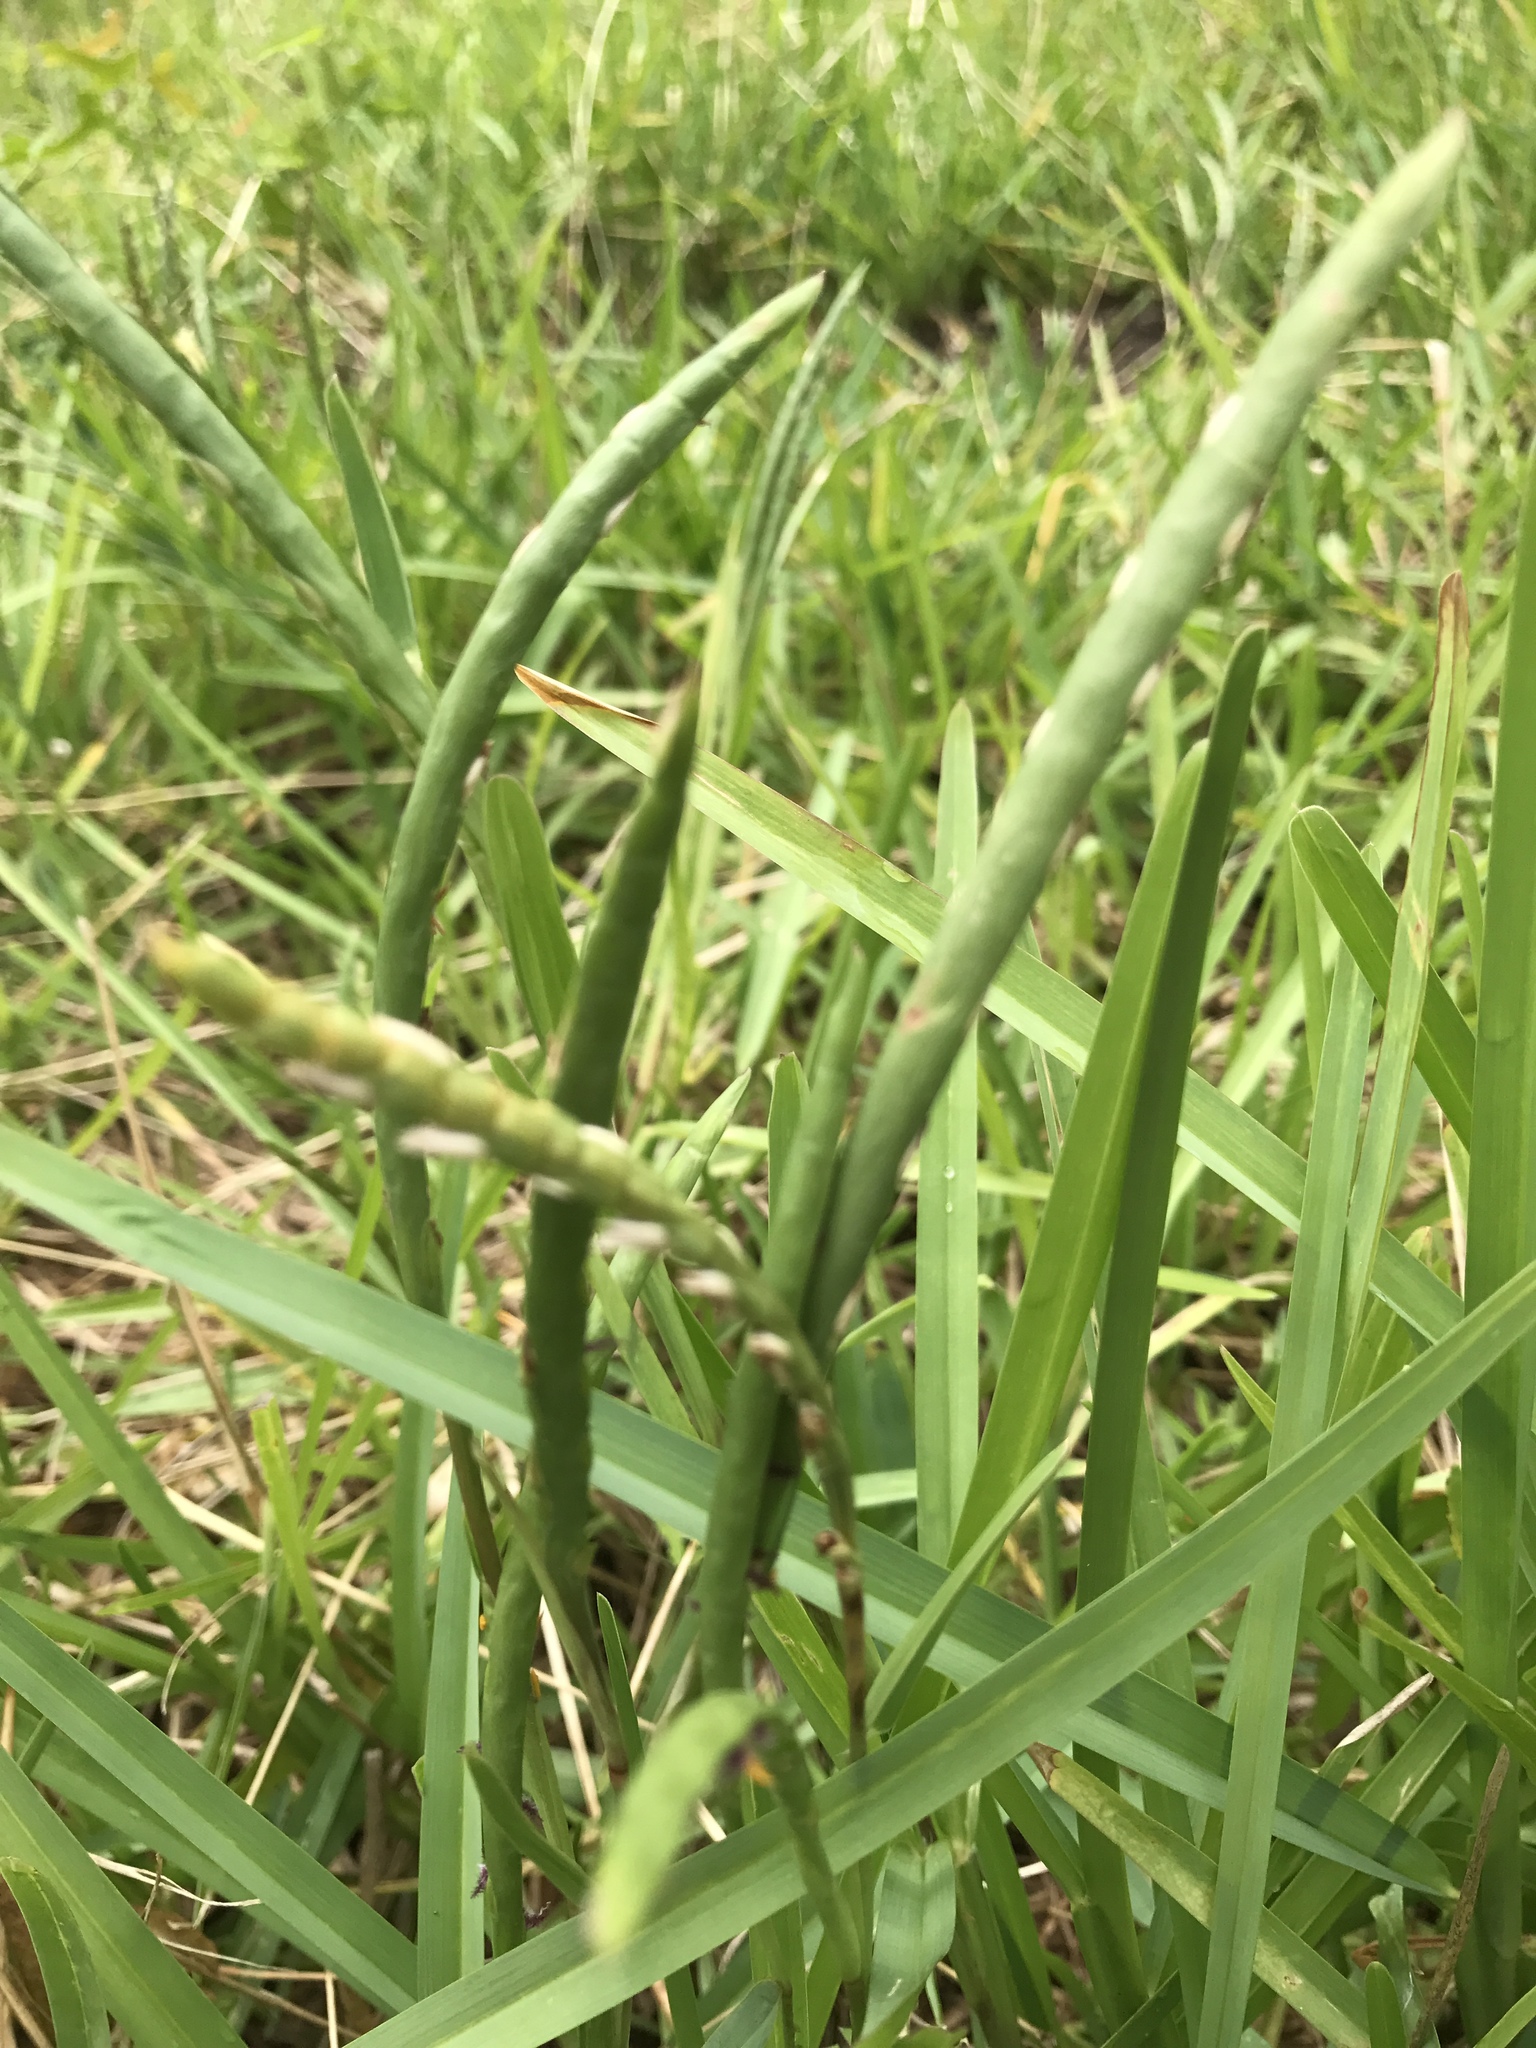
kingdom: Plantae
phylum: Tracheophyta
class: Liliopsida
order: Poales
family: Poaceae
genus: Stenotaphrum
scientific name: Stenotaphrum secundatum
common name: St. augustine grass
